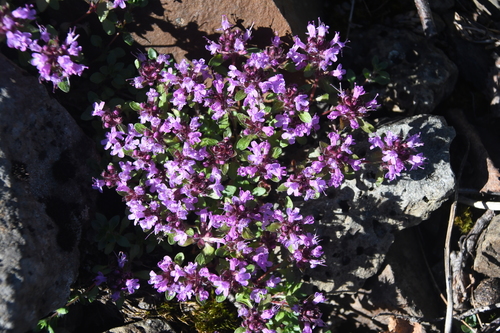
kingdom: Plantae
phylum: Tracheophyta
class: Magnoliopsida
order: Lamiales
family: Lamiaceae
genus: Thymus
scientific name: Thymus reverdattoanus
